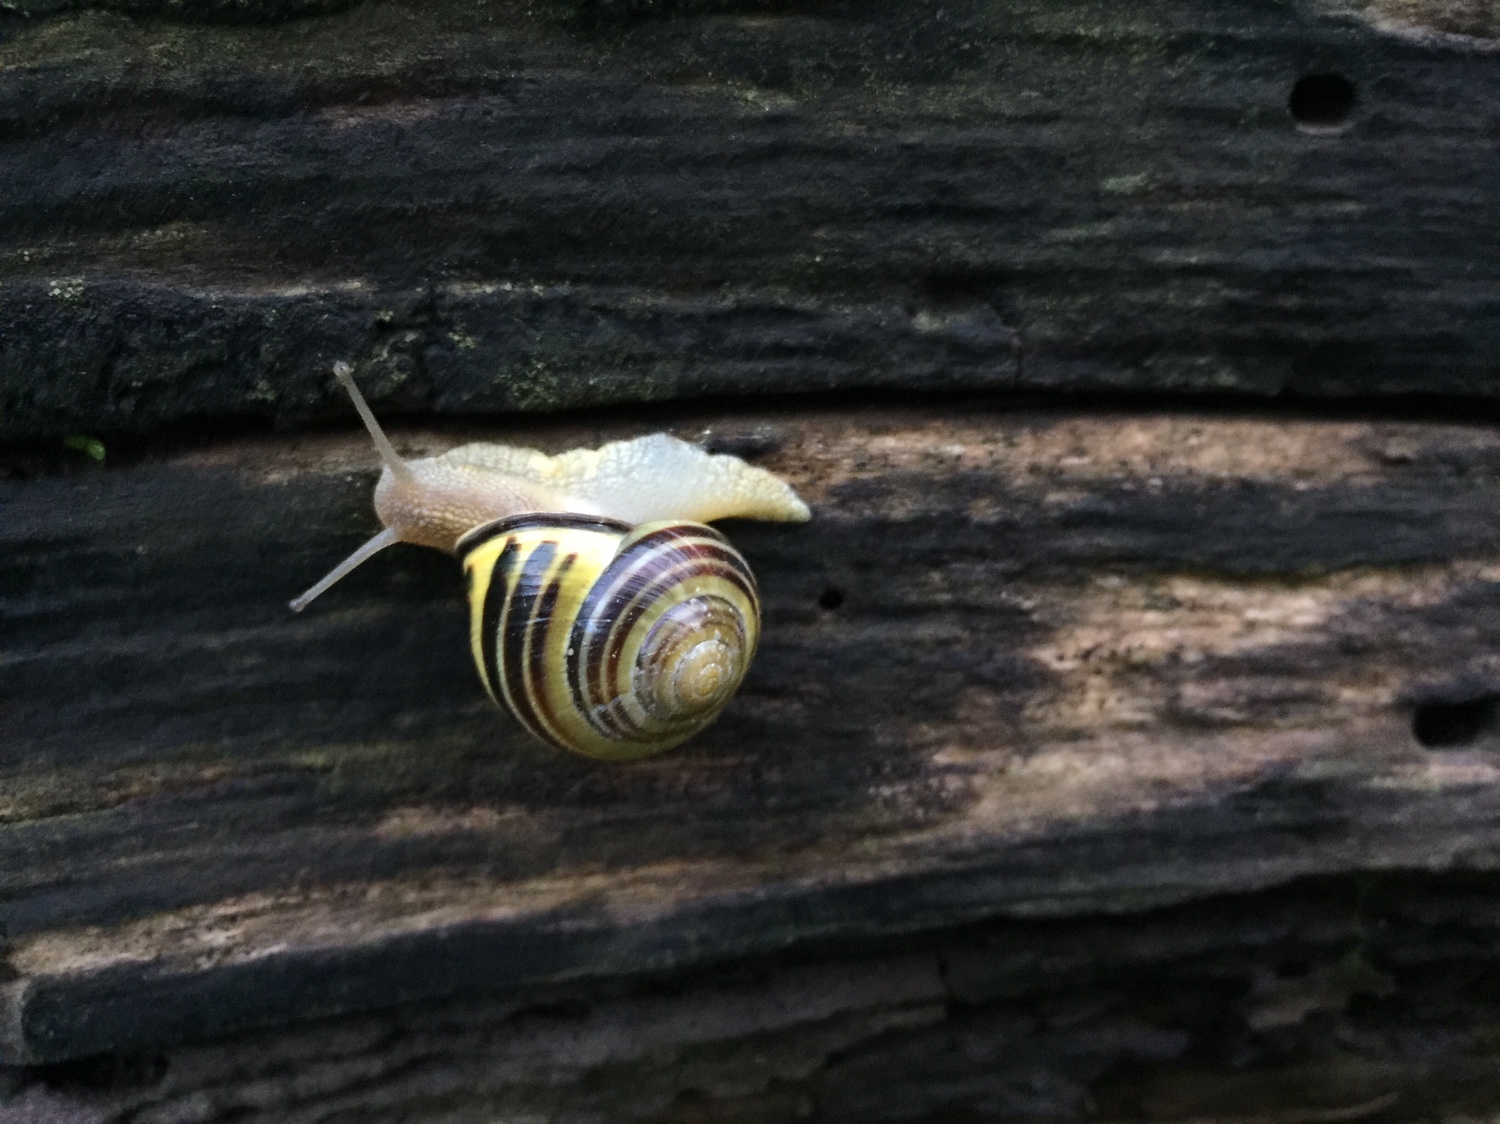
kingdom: Animalia
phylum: Mollusca
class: Gastropoda
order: Stylommatophora
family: Helicidae
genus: Cepaea
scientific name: Cepaea nemoralis
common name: Grovesnail
